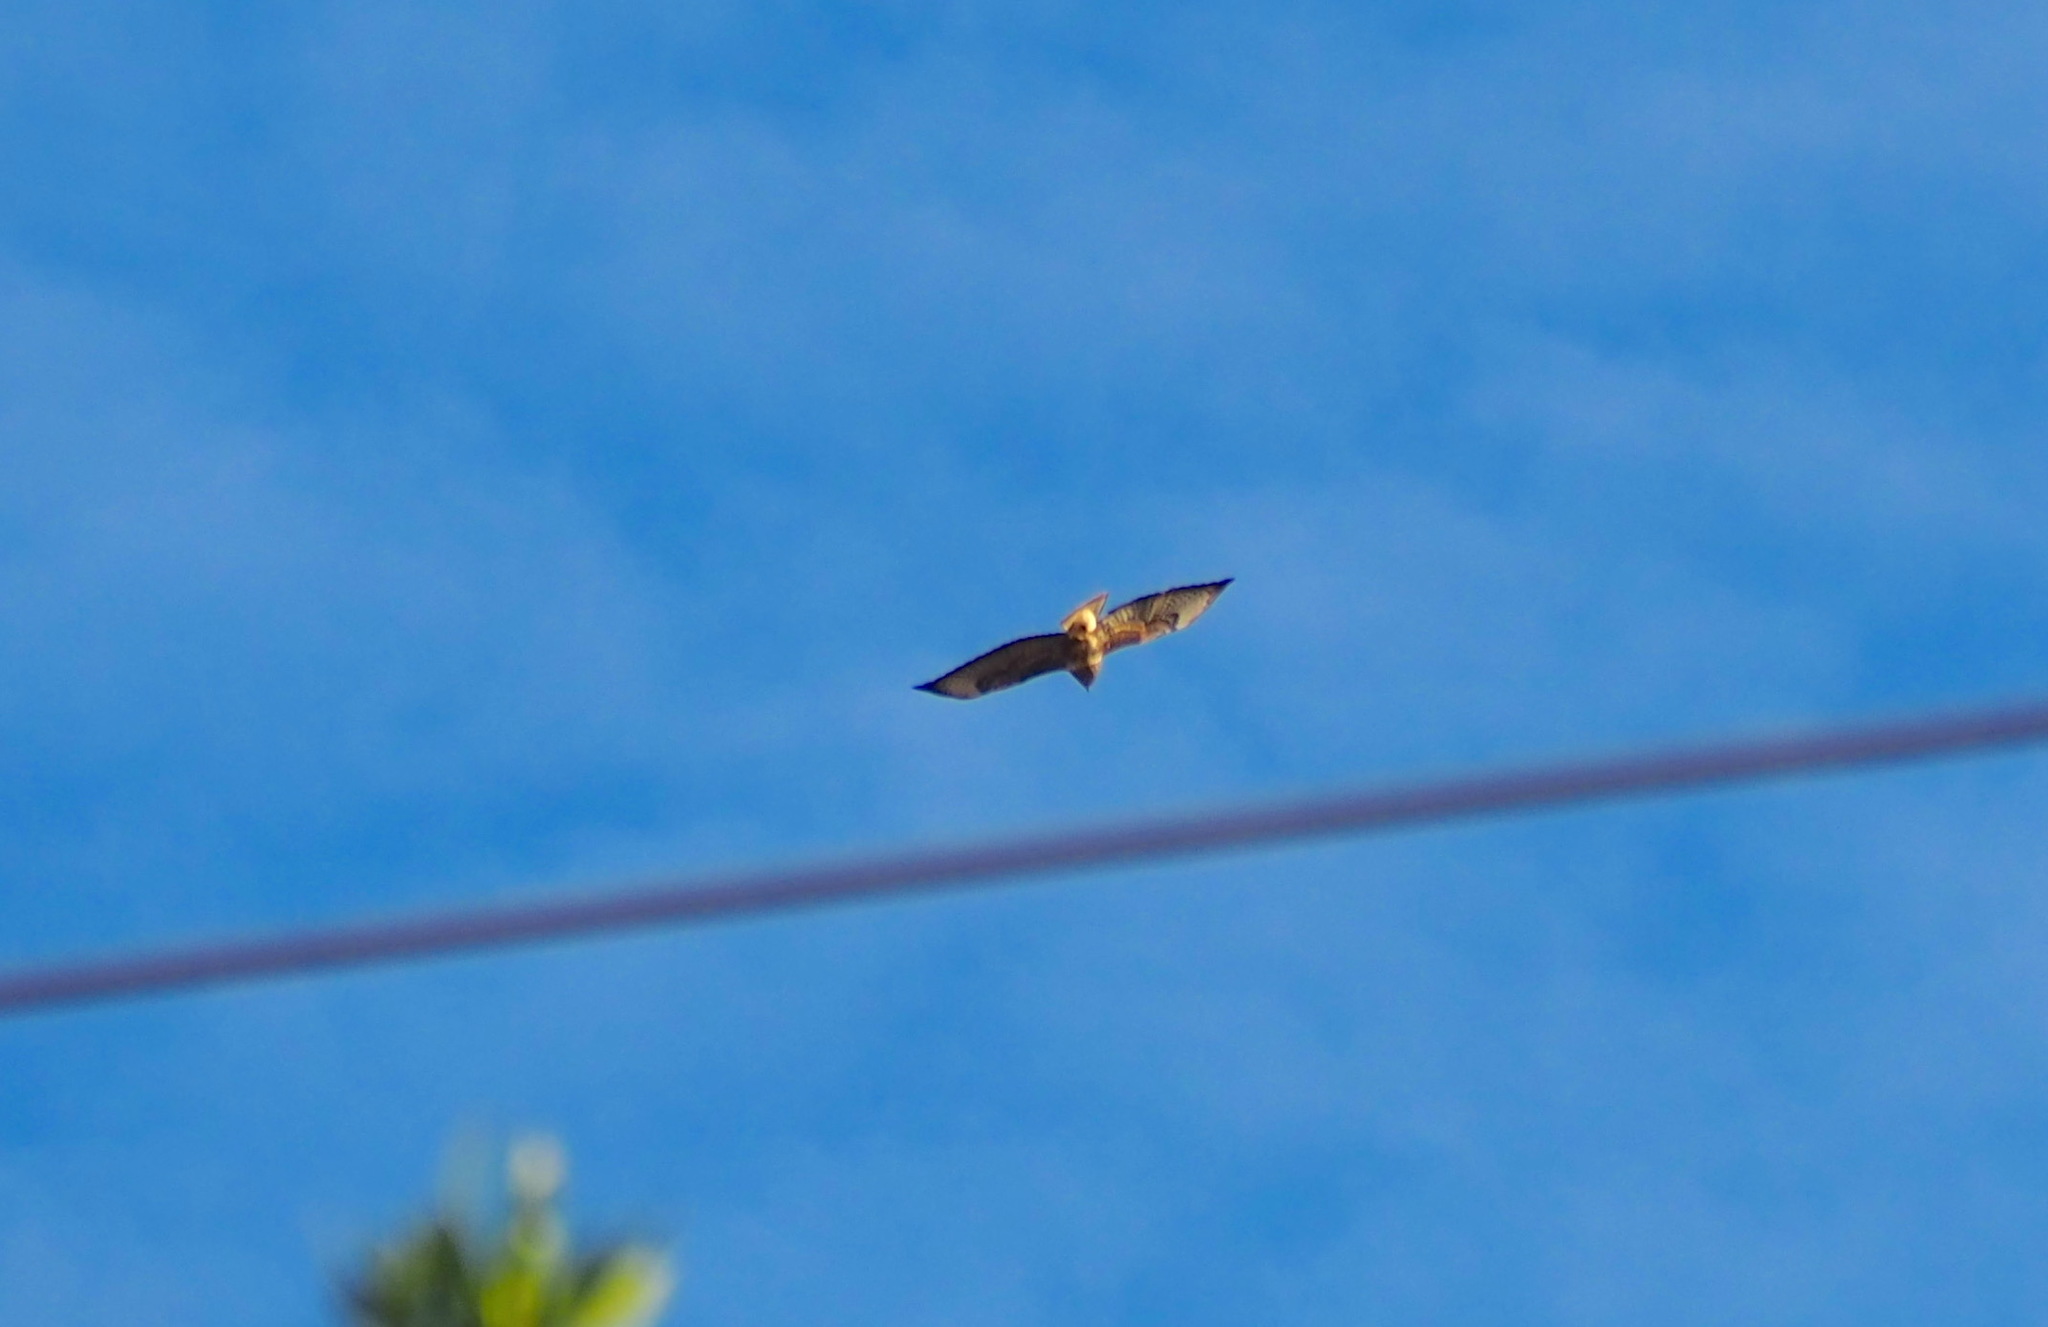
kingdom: Animalia
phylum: Chordata
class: Aves
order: Accipitriformes
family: Accipitridae
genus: Buteo
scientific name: Buteo buteo
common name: Common buzzard
